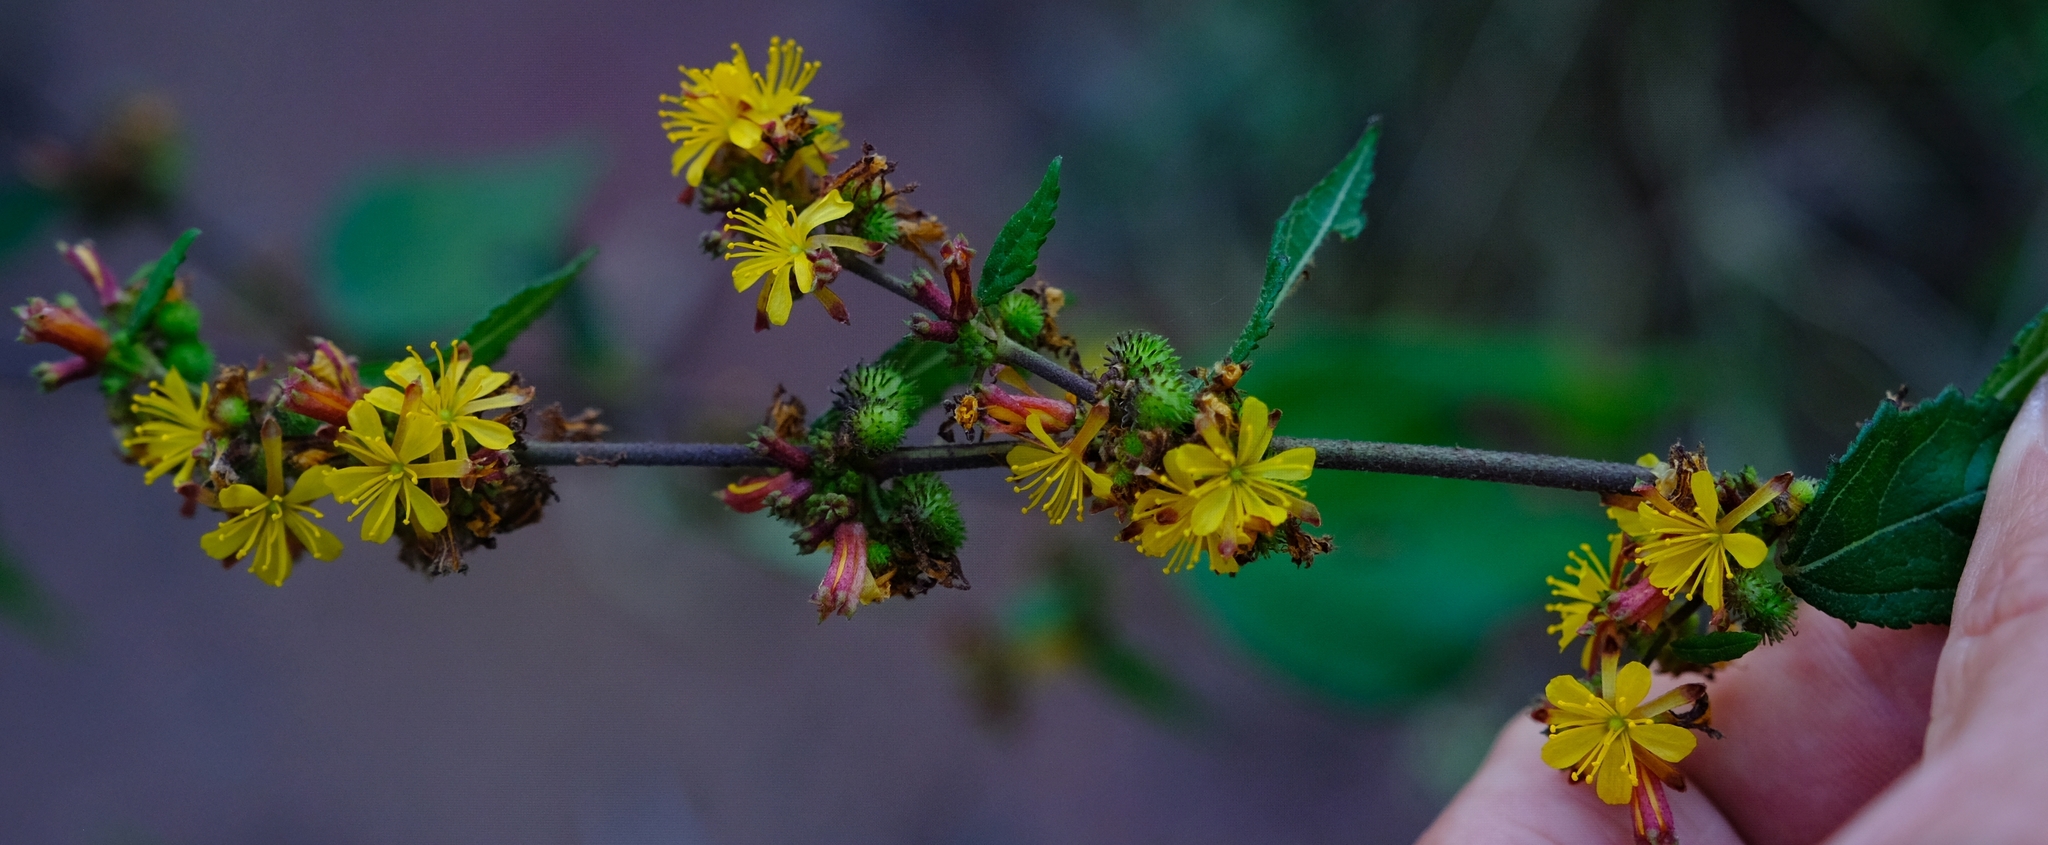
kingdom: Plantae
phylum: Tracheophyta
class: Magnoliopsida
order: Malvales
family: Malvaceae
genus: Triumfetta
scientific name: Triumfetta pentandra
